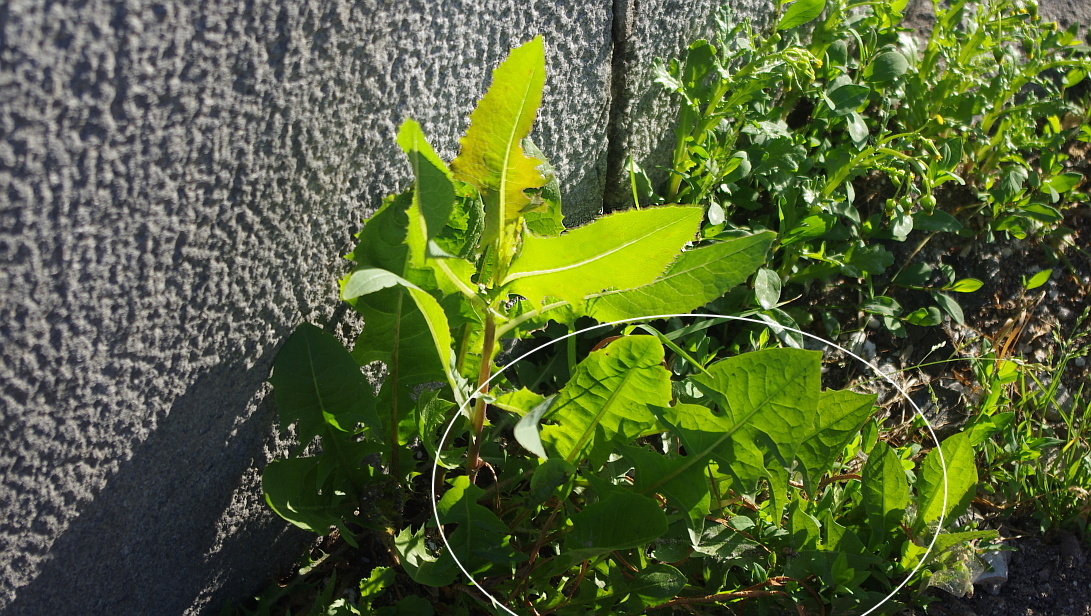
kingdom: Plantae
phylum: Tracheophyta
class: Magnoliopsida
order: Asterales
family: Asteraceae
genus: Taraxacum
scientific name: Taraxacum officinale
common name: Common dandelion
